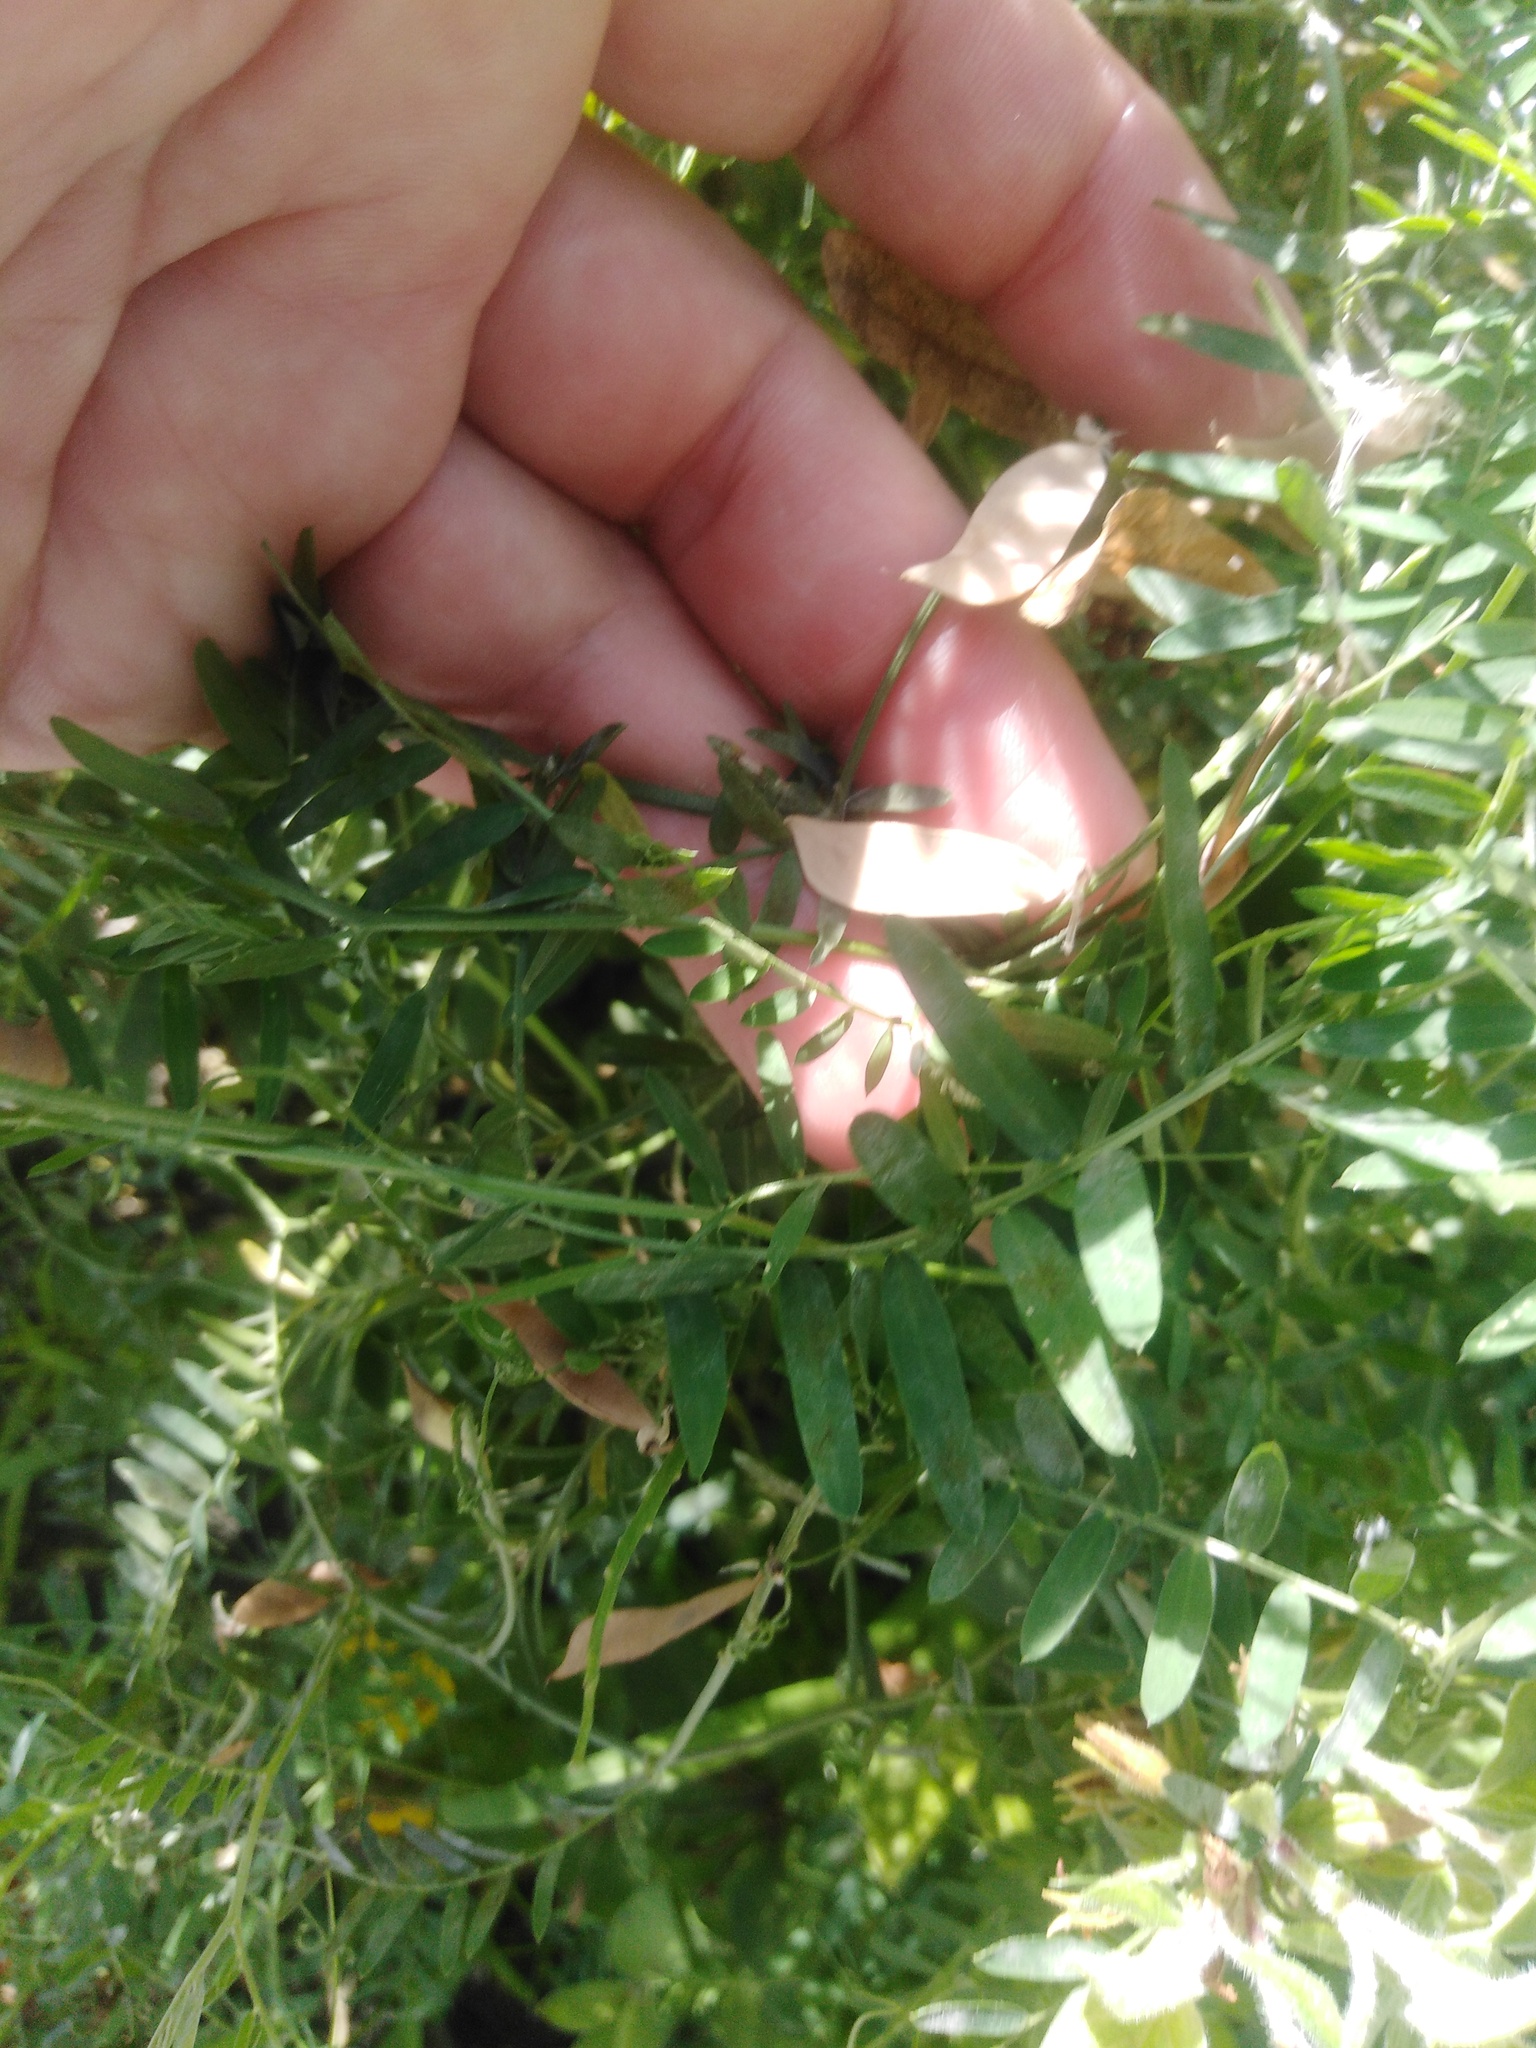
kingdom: Plantae
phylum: Tracheophyta
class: Magnoliopsida
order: Fabales
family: Fabaceae
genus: Vicia
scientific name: Vicia cracca
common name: Bird vetch
